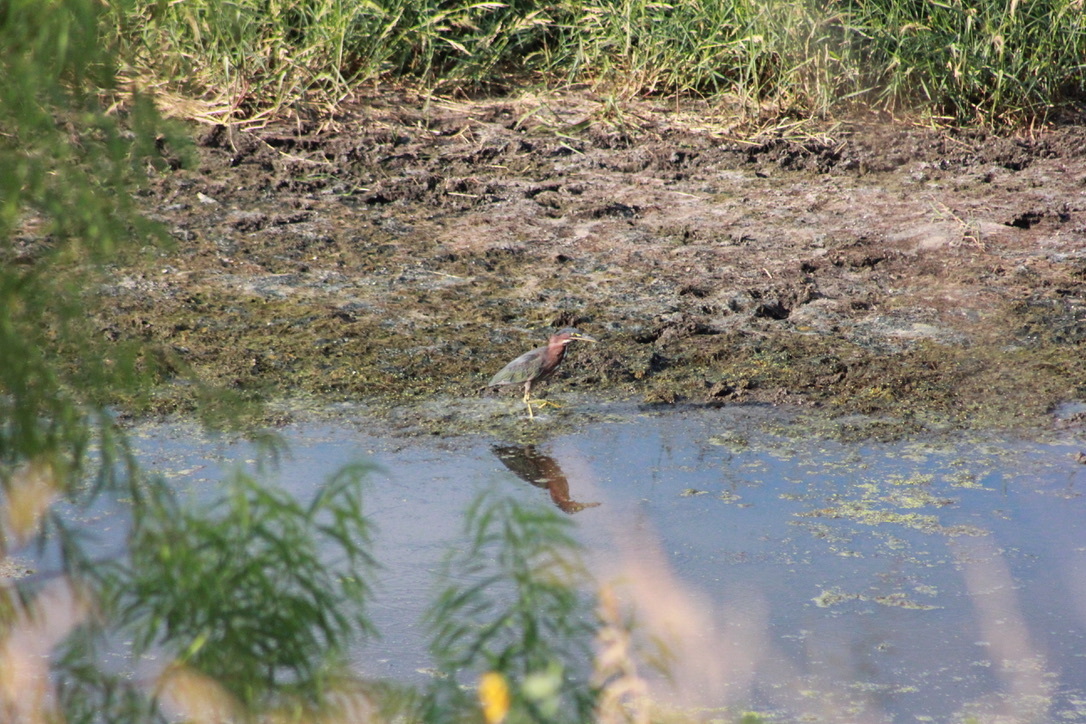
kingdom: Animalia
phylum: Chordata
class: Aves
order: Pelecaniformes
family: Ardeidae
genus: Butorides
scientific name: Butorides virescens
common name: Green heron
